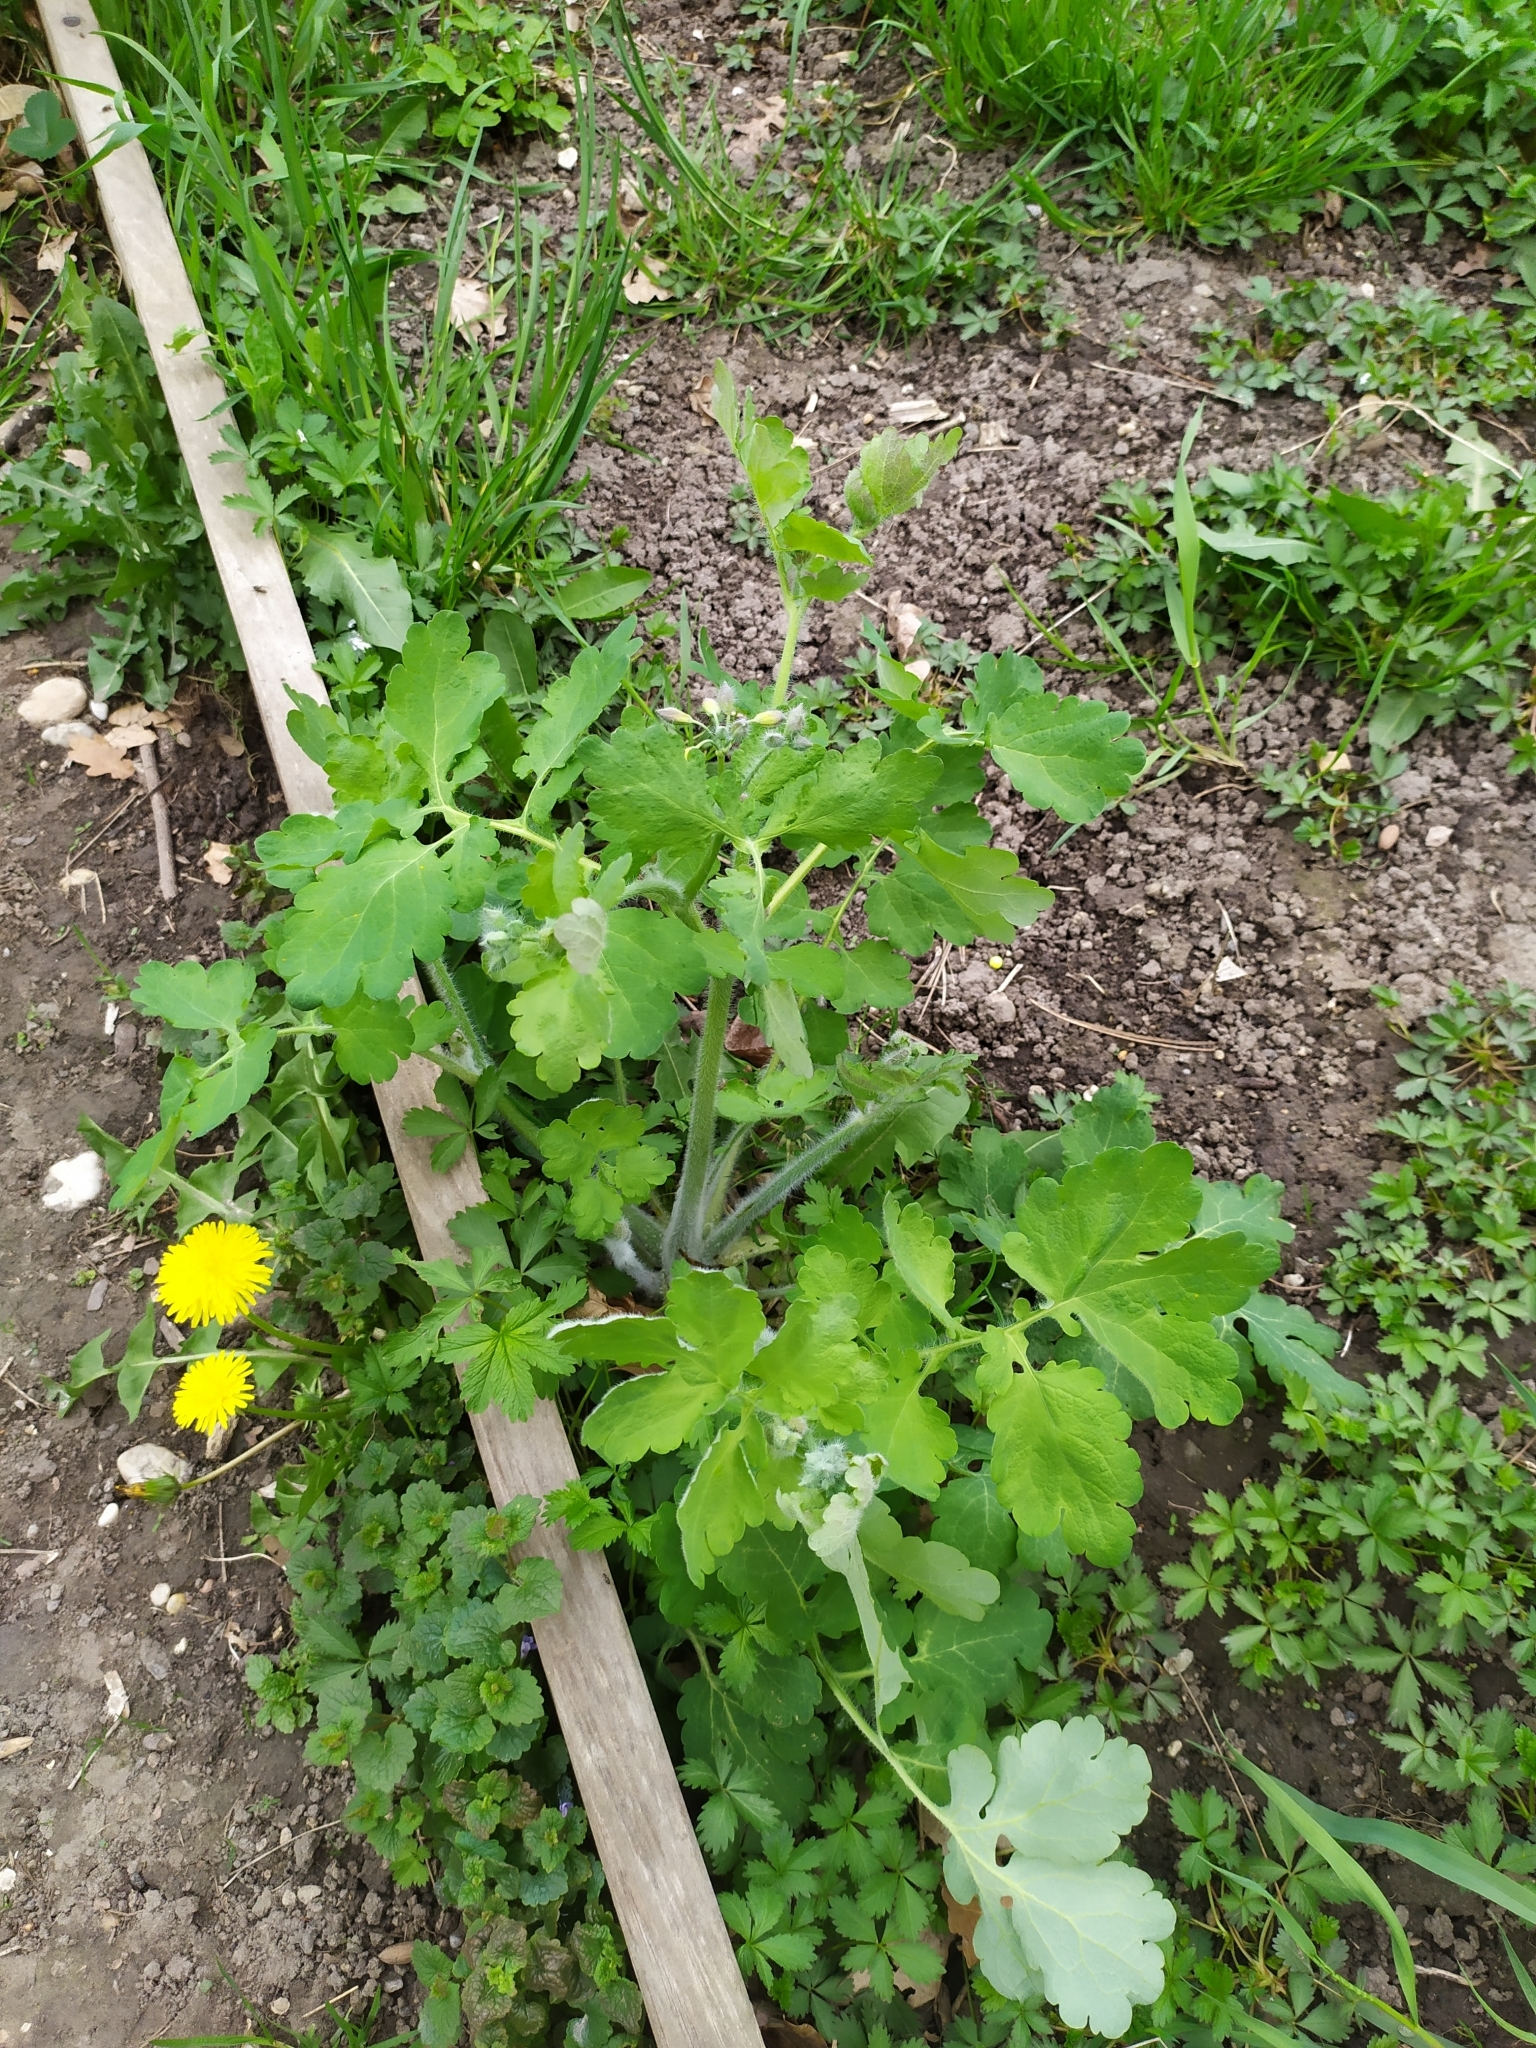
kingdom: Plantae
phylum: Tracheophyta
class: Magnoliopsida
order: Ranunculales
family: Papaveraceae
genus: Chelidonium
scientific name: Chelidonium majus
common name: Greater celandine
